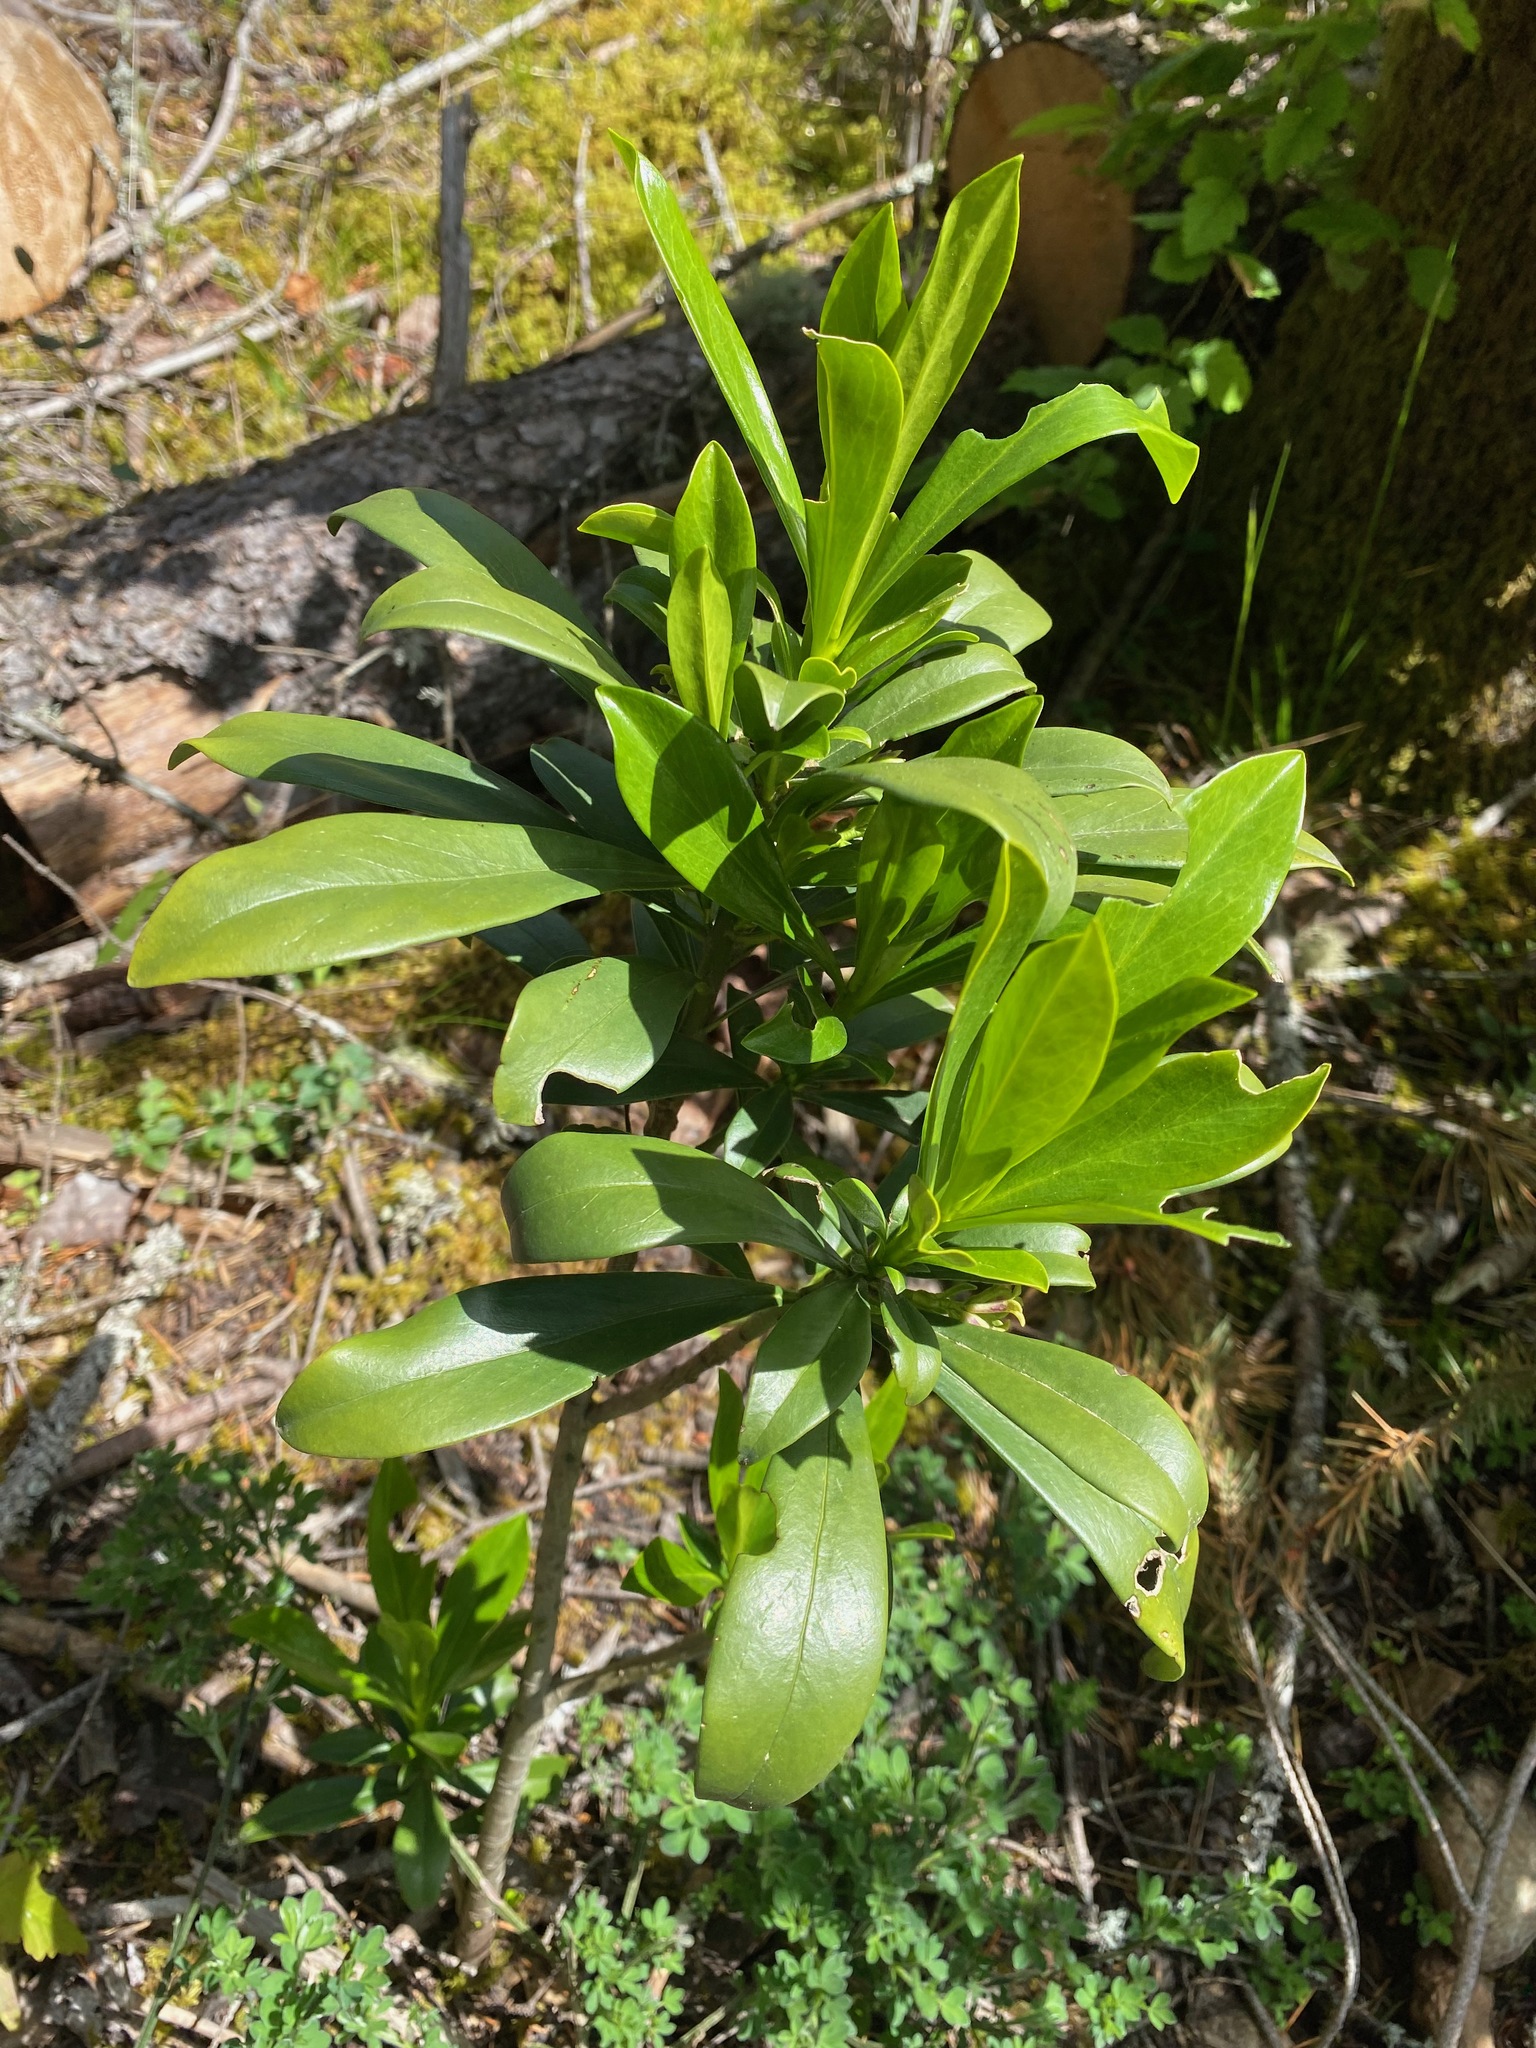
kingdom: Plantae
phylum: Tracheophyta
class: Magnoliopsida
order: Malvales
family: Thymelaeaceae
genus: Daphne
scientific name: Daphne laureola
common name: Spurge-laurel
